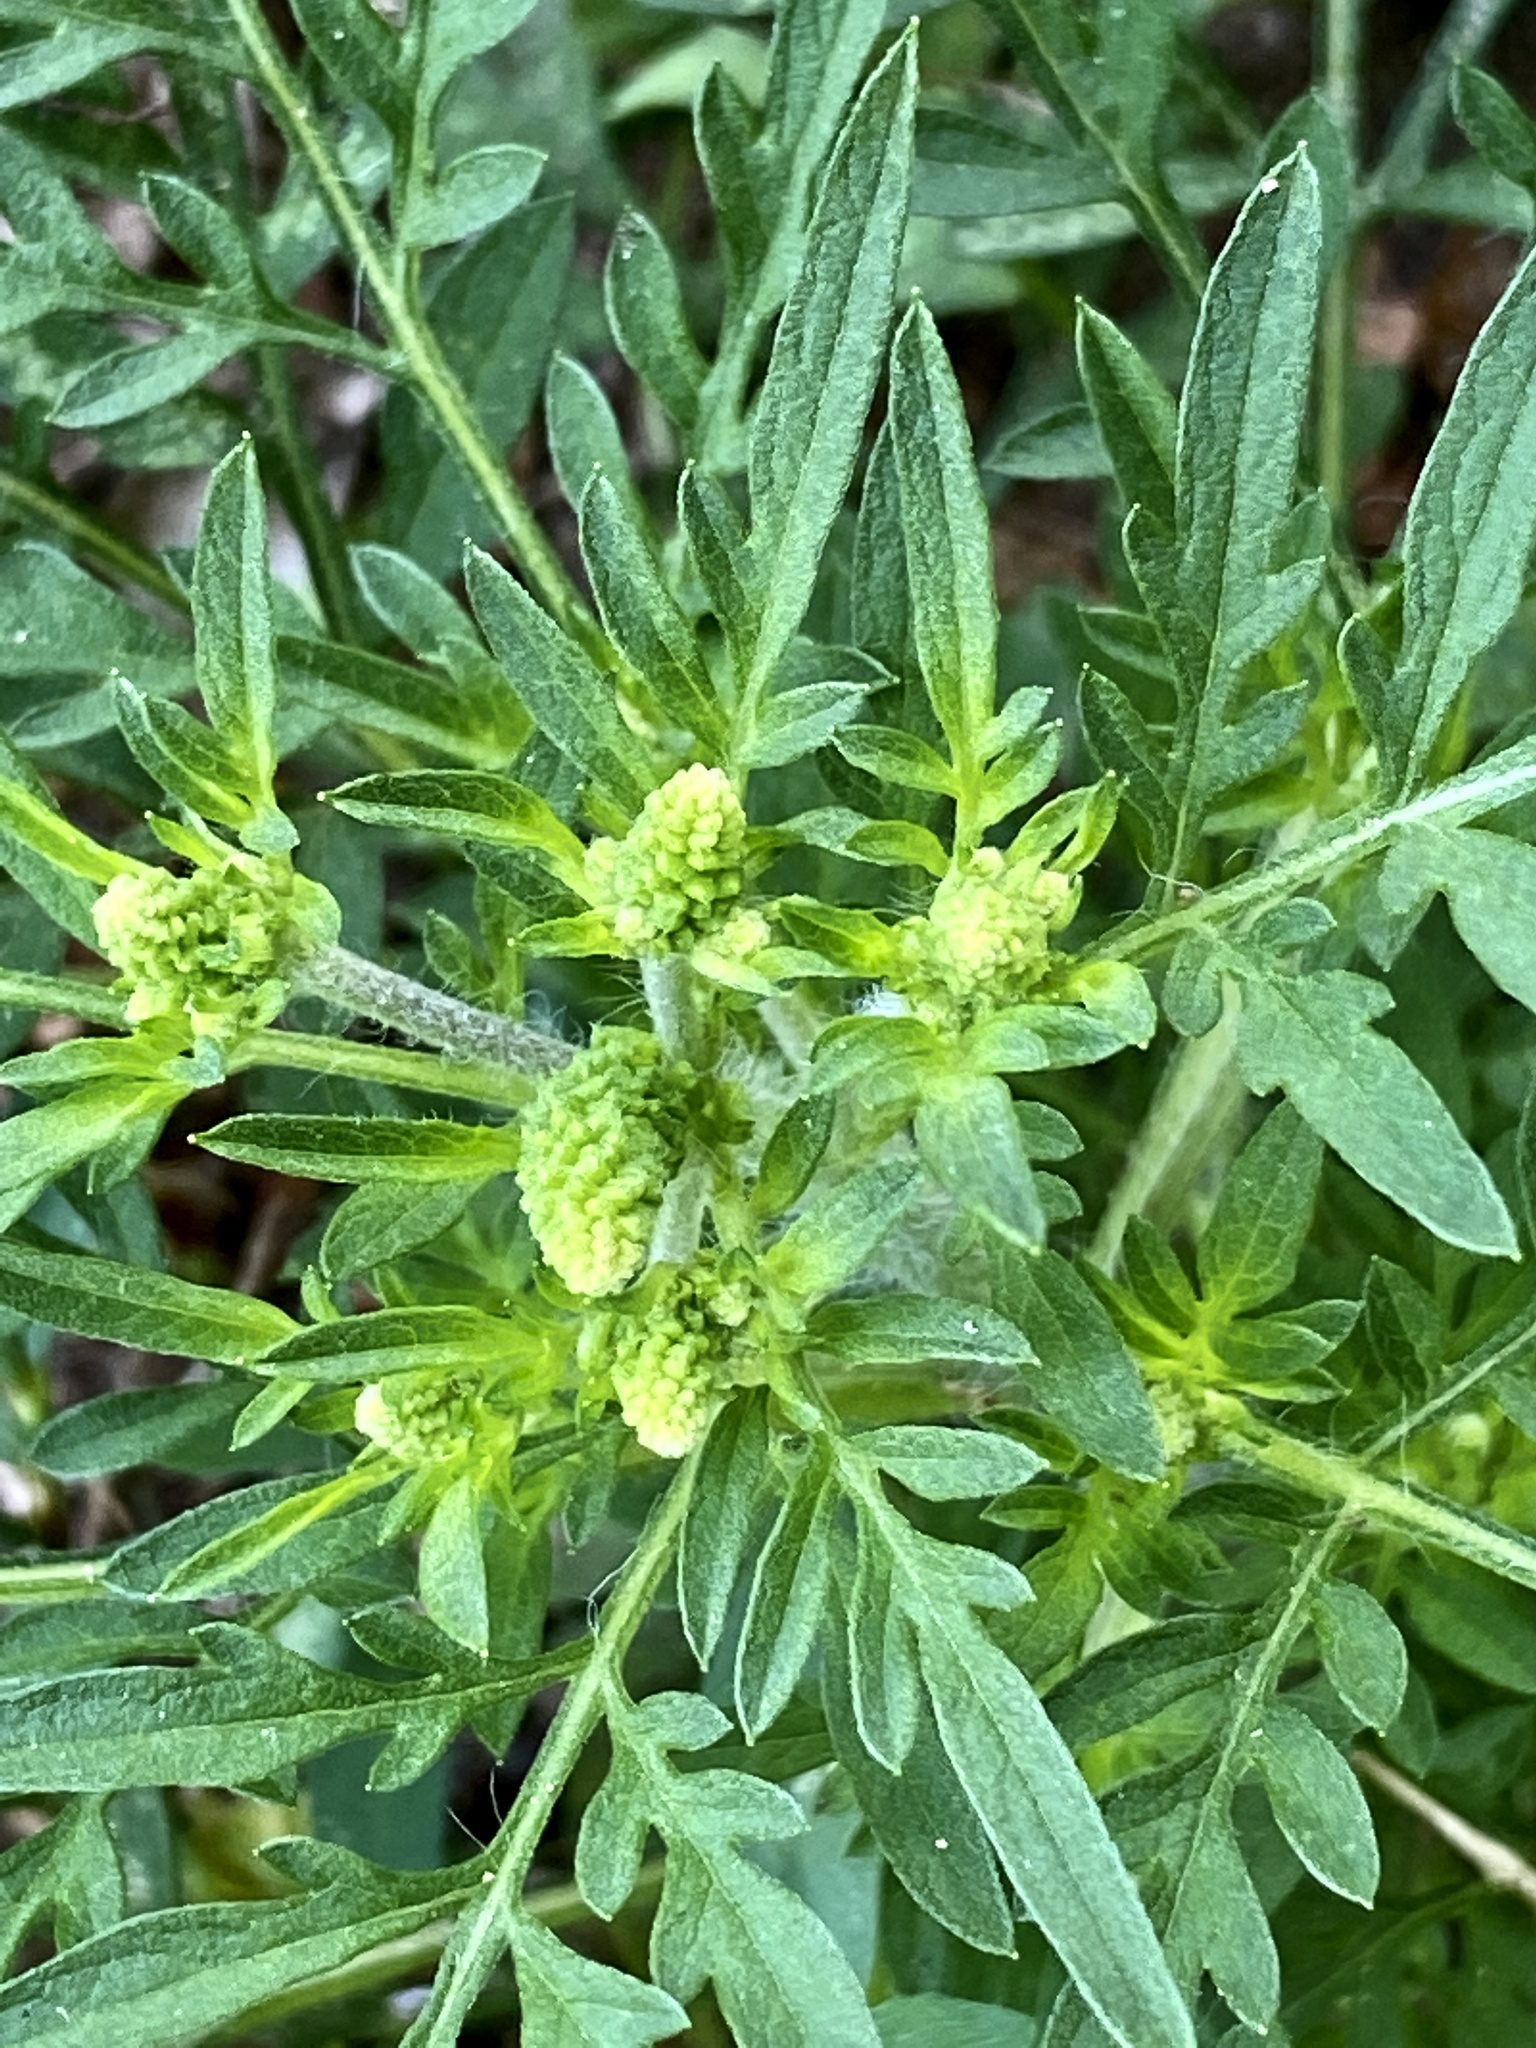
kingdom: Plantae
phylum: Tracheophyta
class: Magnoliopsida
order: Asterales
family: Asteraceae
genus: Ambrosia
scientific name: Ambrosia artemisiifolia
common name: Annual ragweed
